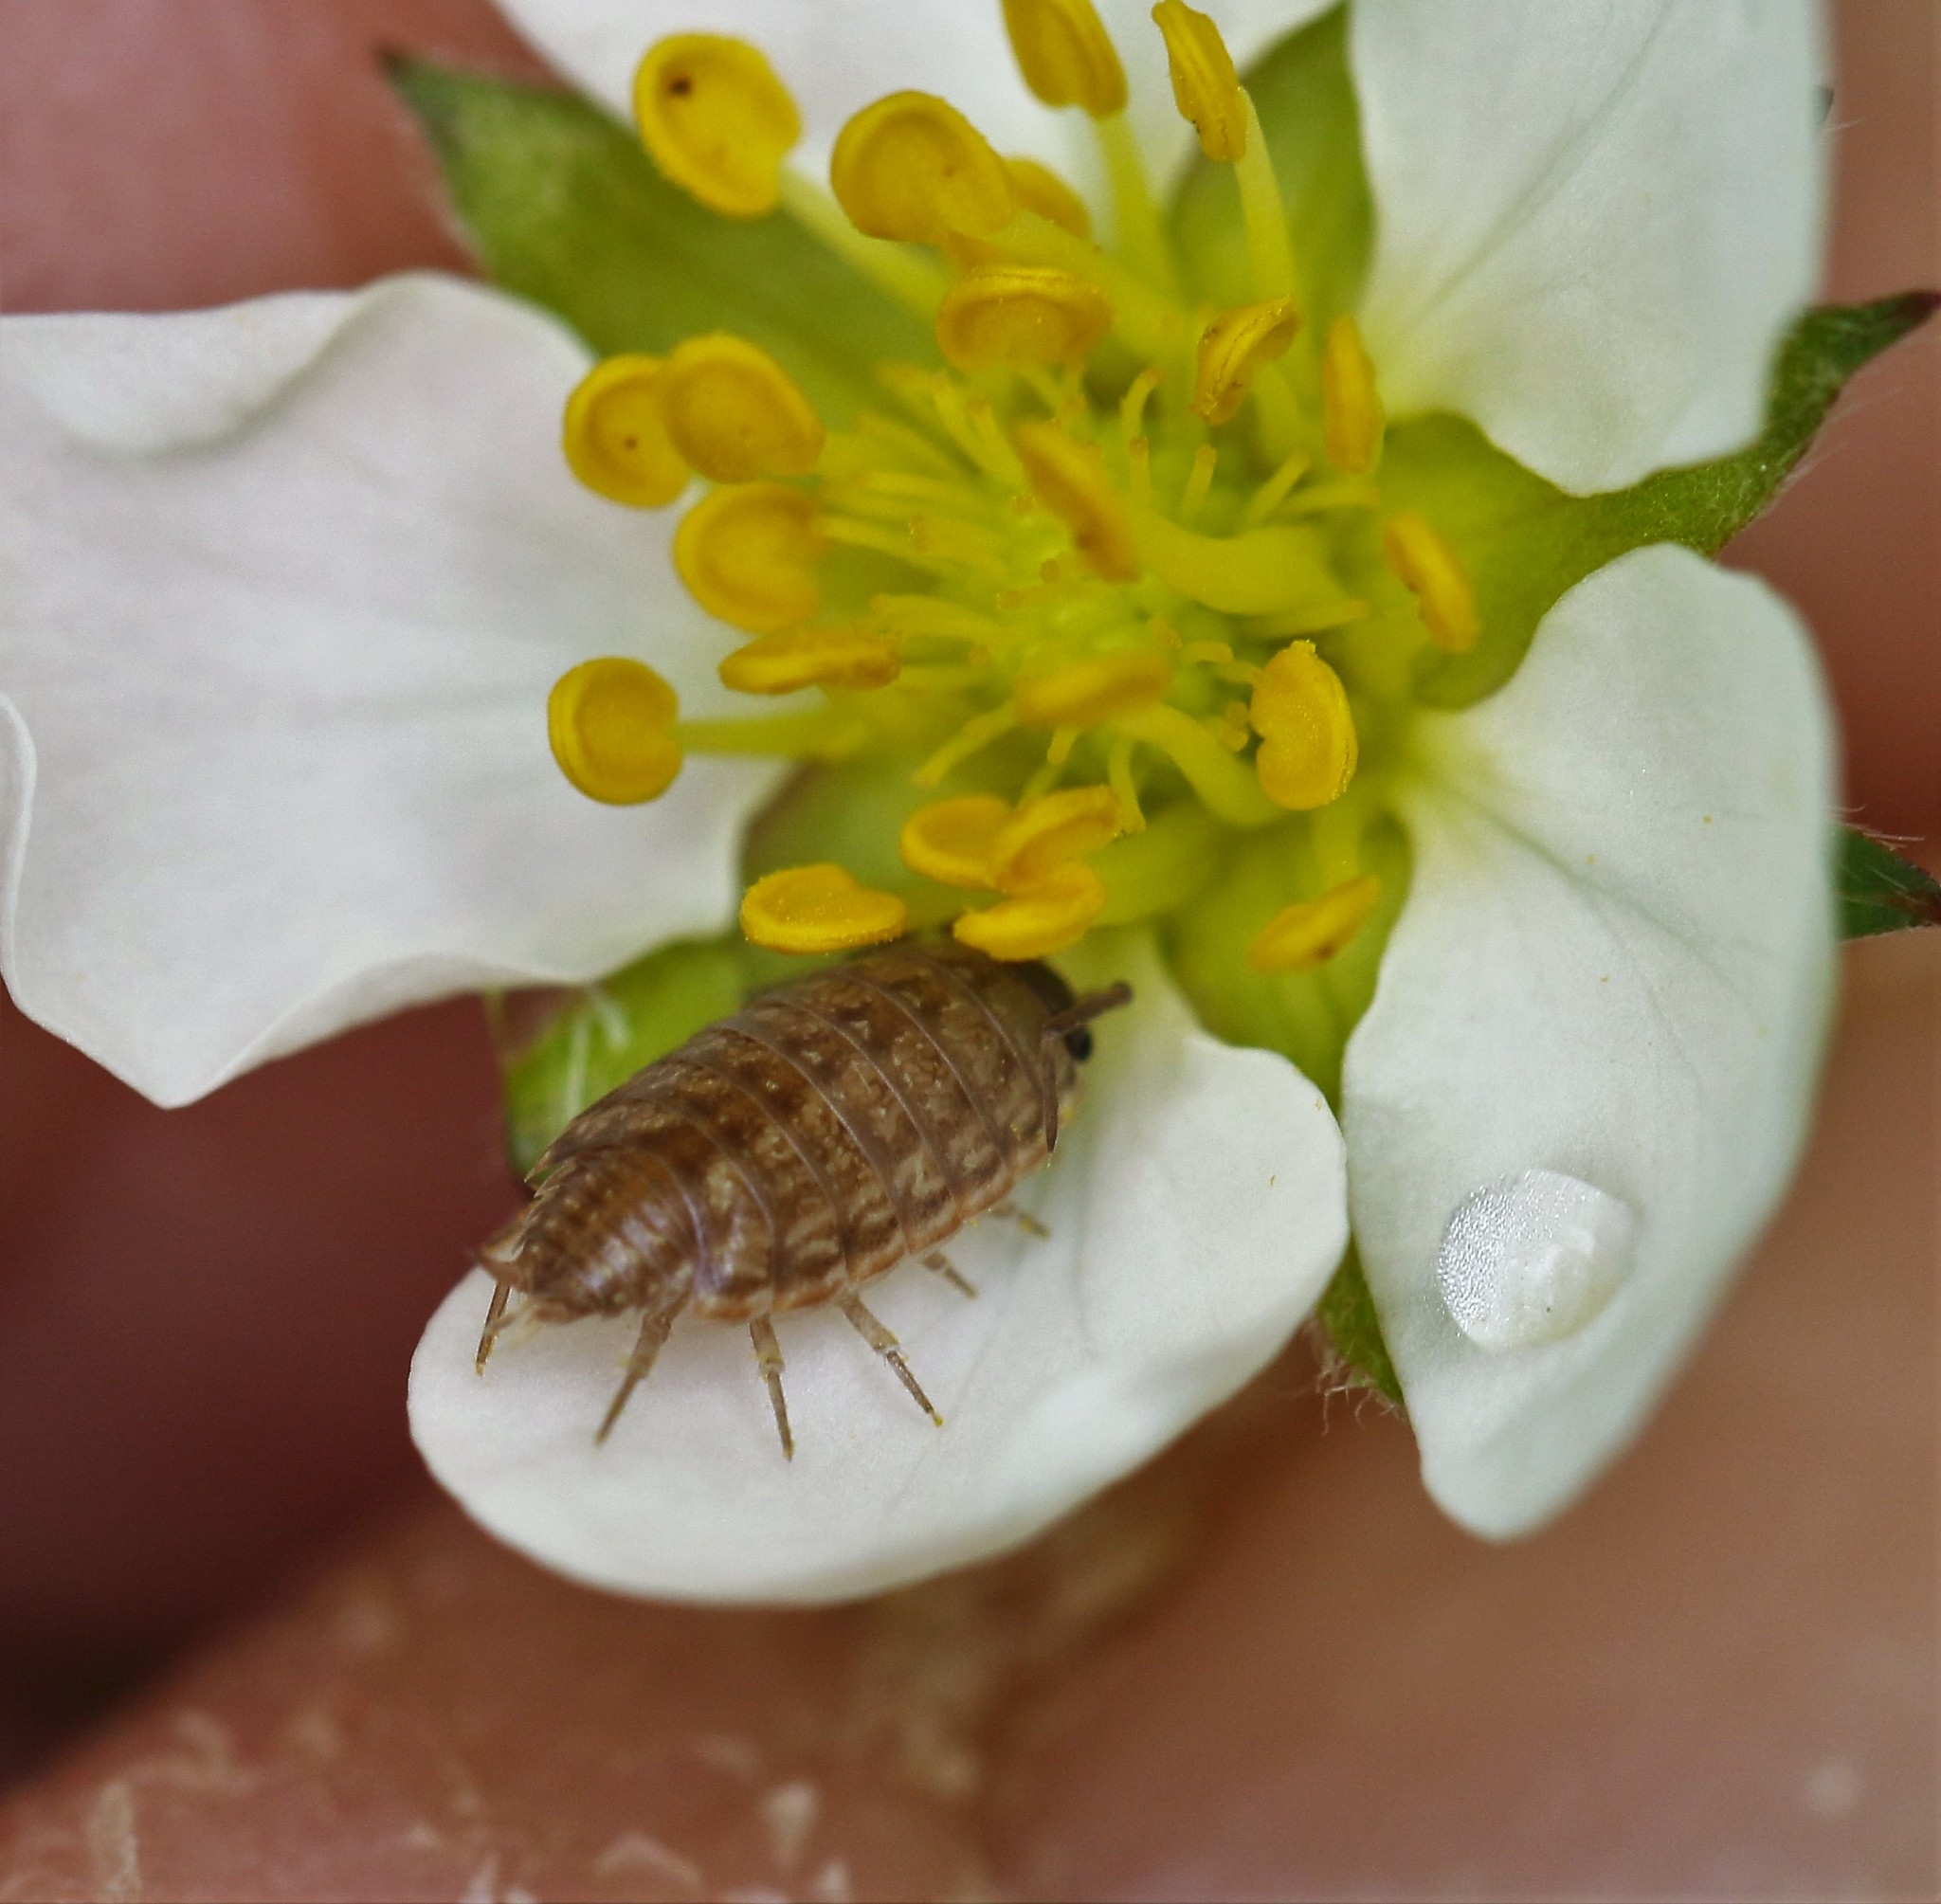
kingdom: Animalia
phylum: Arthropoda
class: Malacostraca
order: Isopoda
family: Philosciidae
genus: Philoscia
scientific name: Philoscia muscorum
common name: Common striped woodlouse
